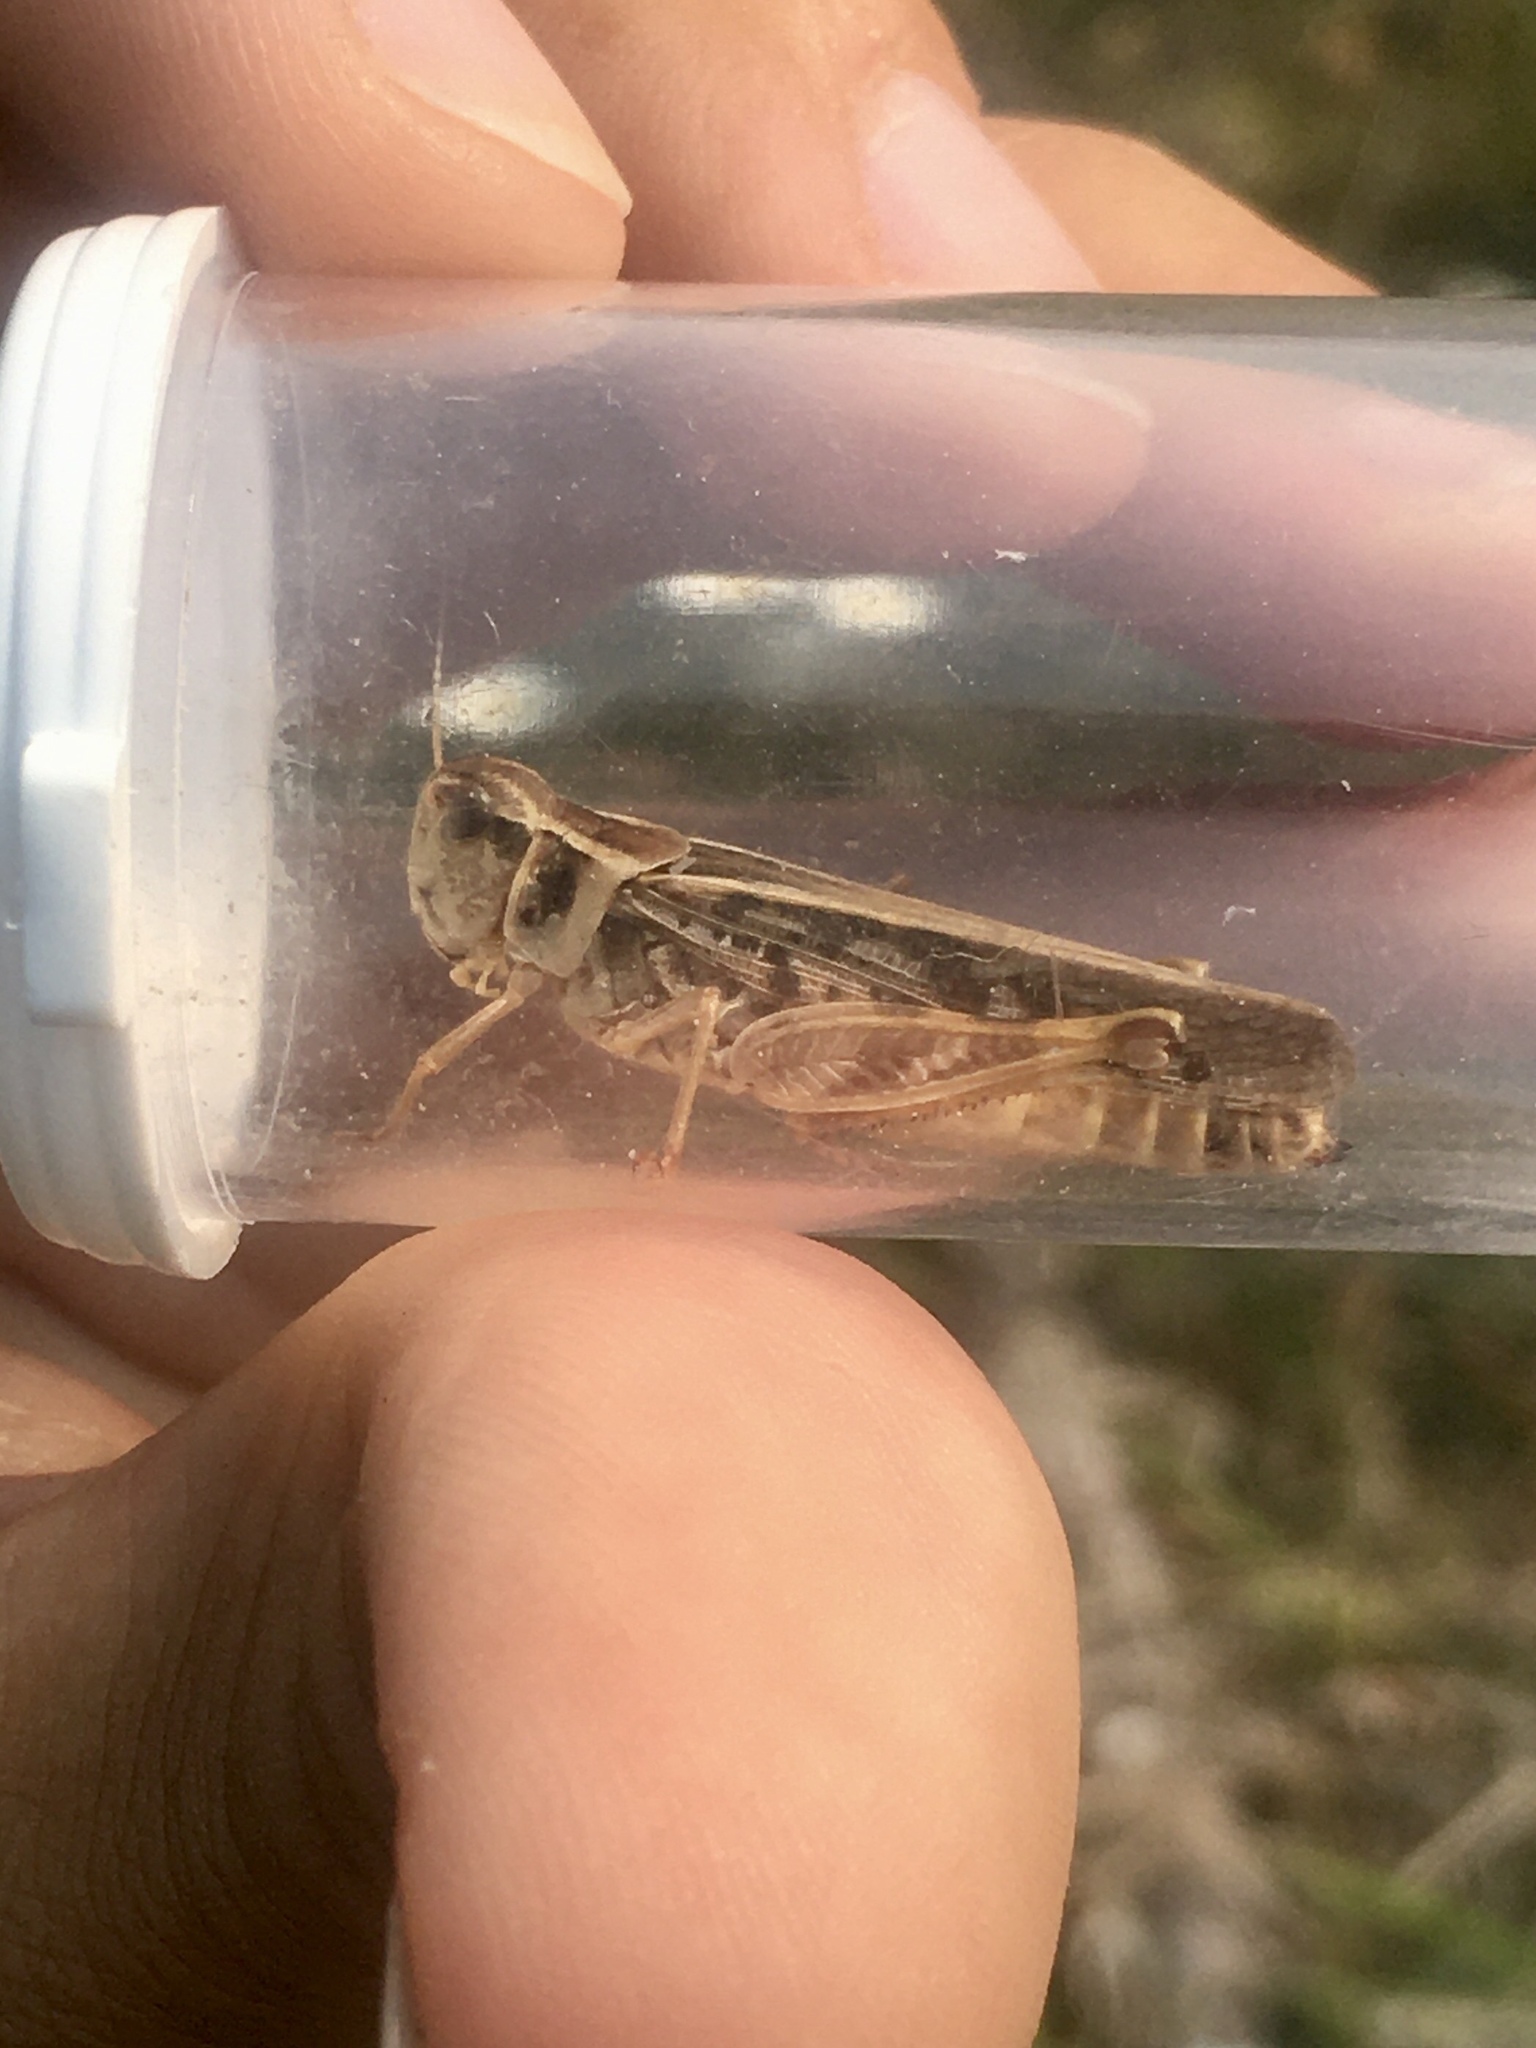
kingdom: Animalia
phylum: Arthropoda
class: Insecta
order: Orthoptera
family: Acrididae
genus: Camnula
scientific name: Camnula pellucida
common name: Clear-winged grasshopper
